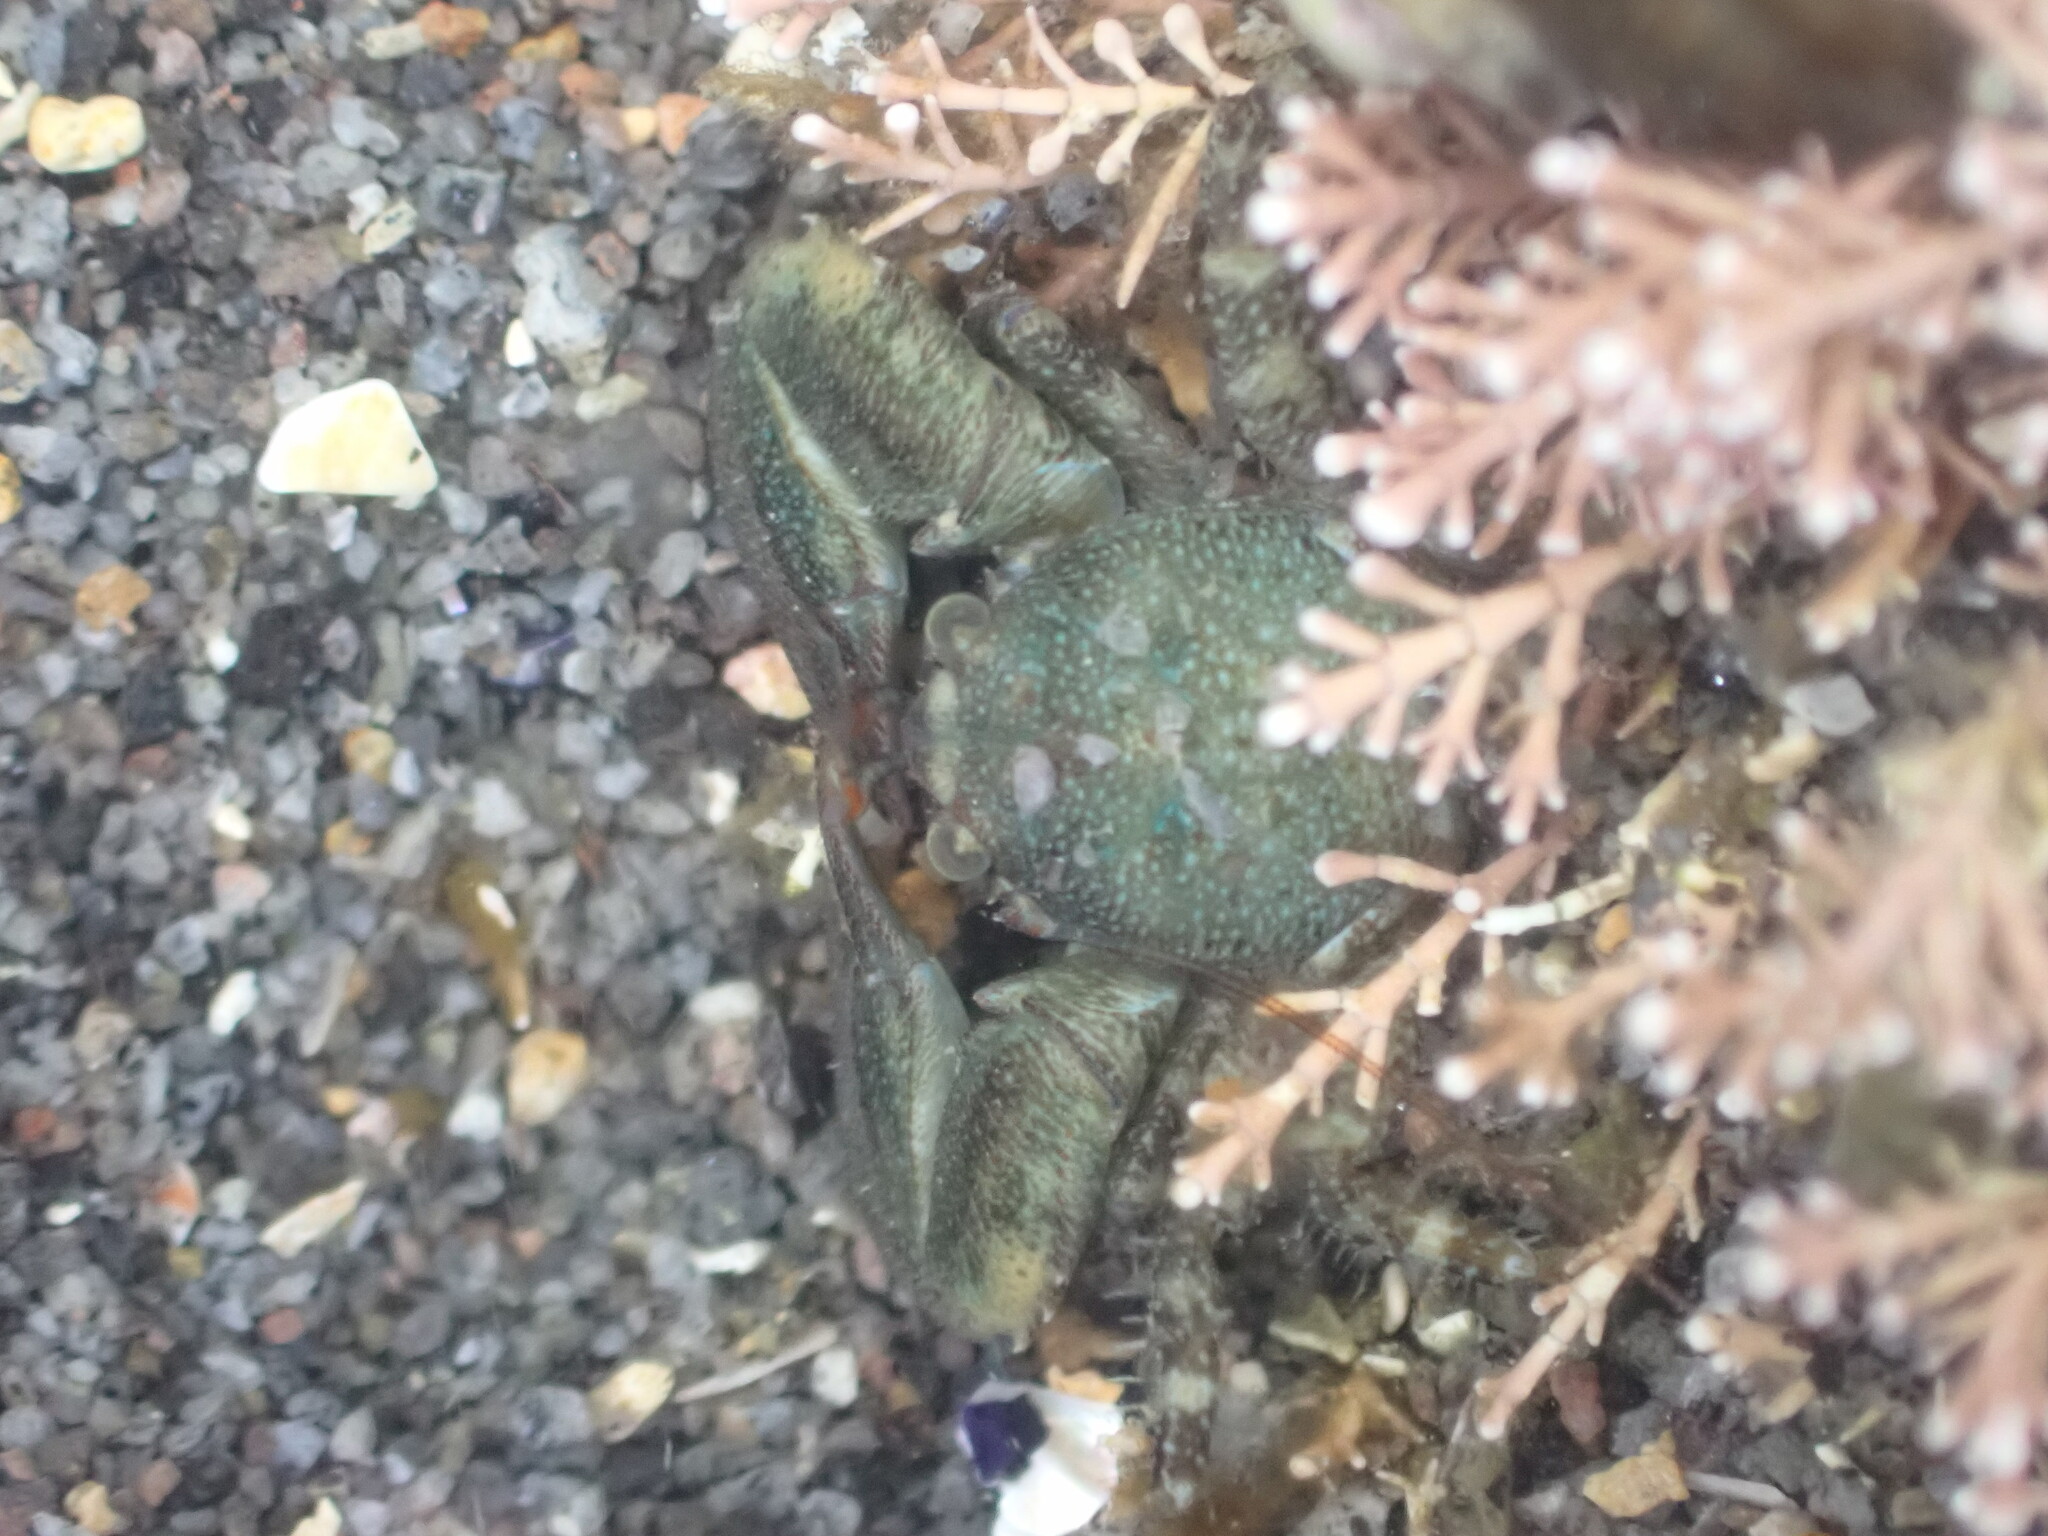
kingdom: Animalia
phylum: Arthropoda
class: Malacostraca
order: Decapoda
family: Porcellanidae
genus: Petrolisthes
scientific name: Petrolisthes elongatus
